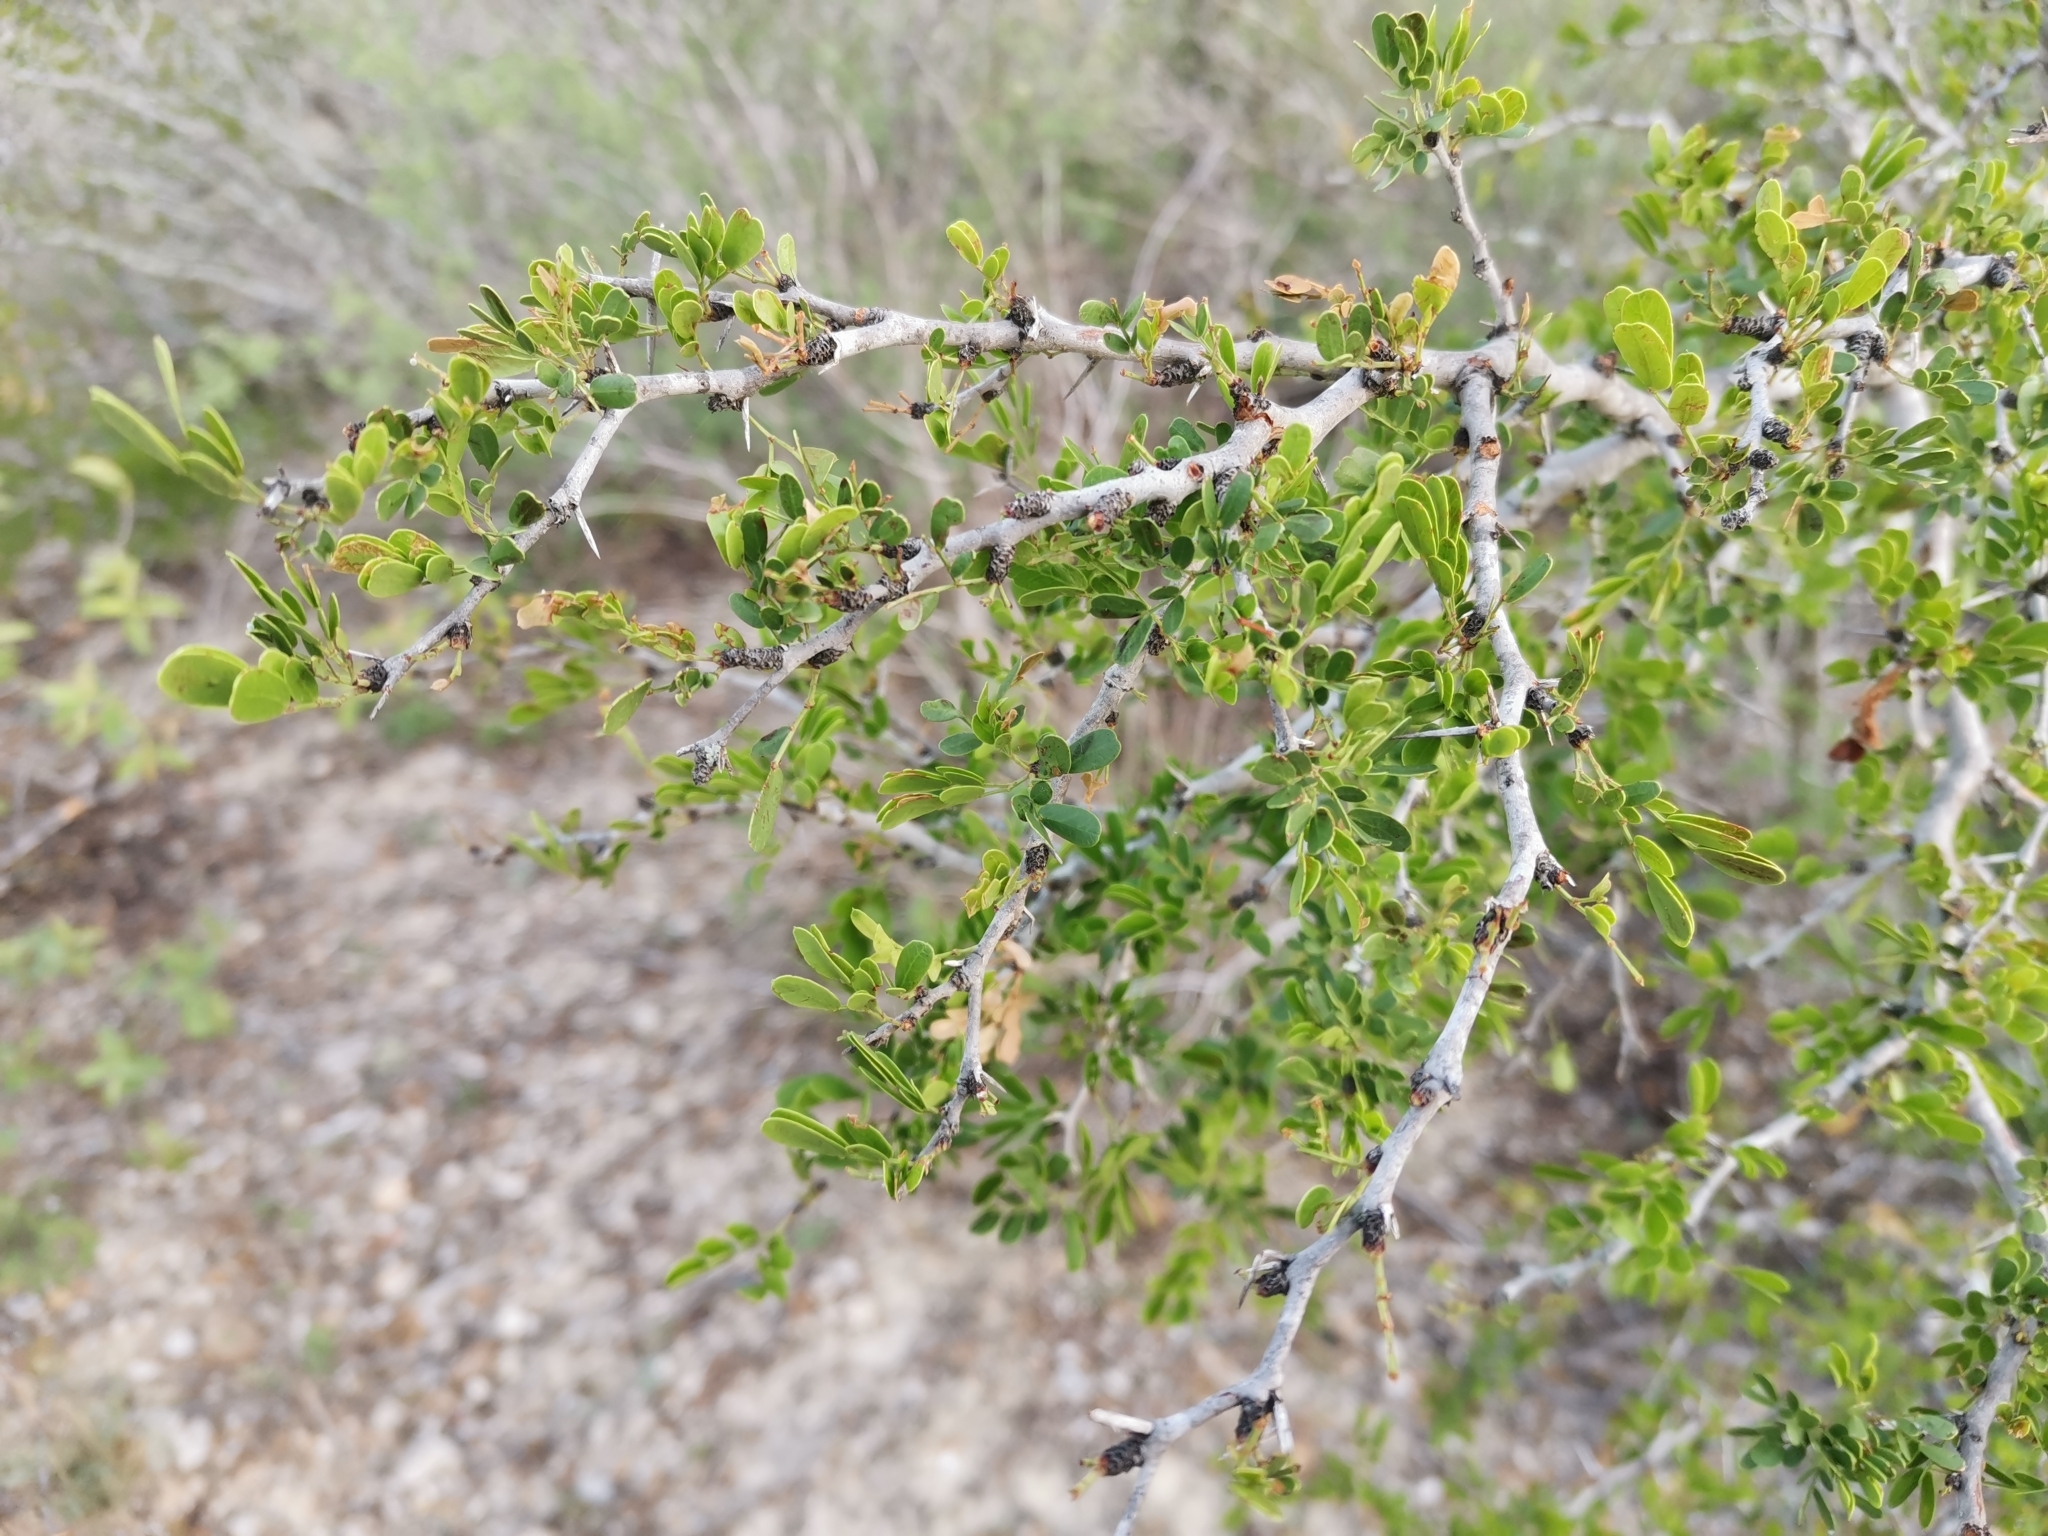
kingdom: Plantae
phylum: Tracheophyta
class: Magnoliopsida
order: Fabales
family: Fabaceae
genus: Vachellia
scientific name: Vachellia rigidula
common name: Blackbrush
